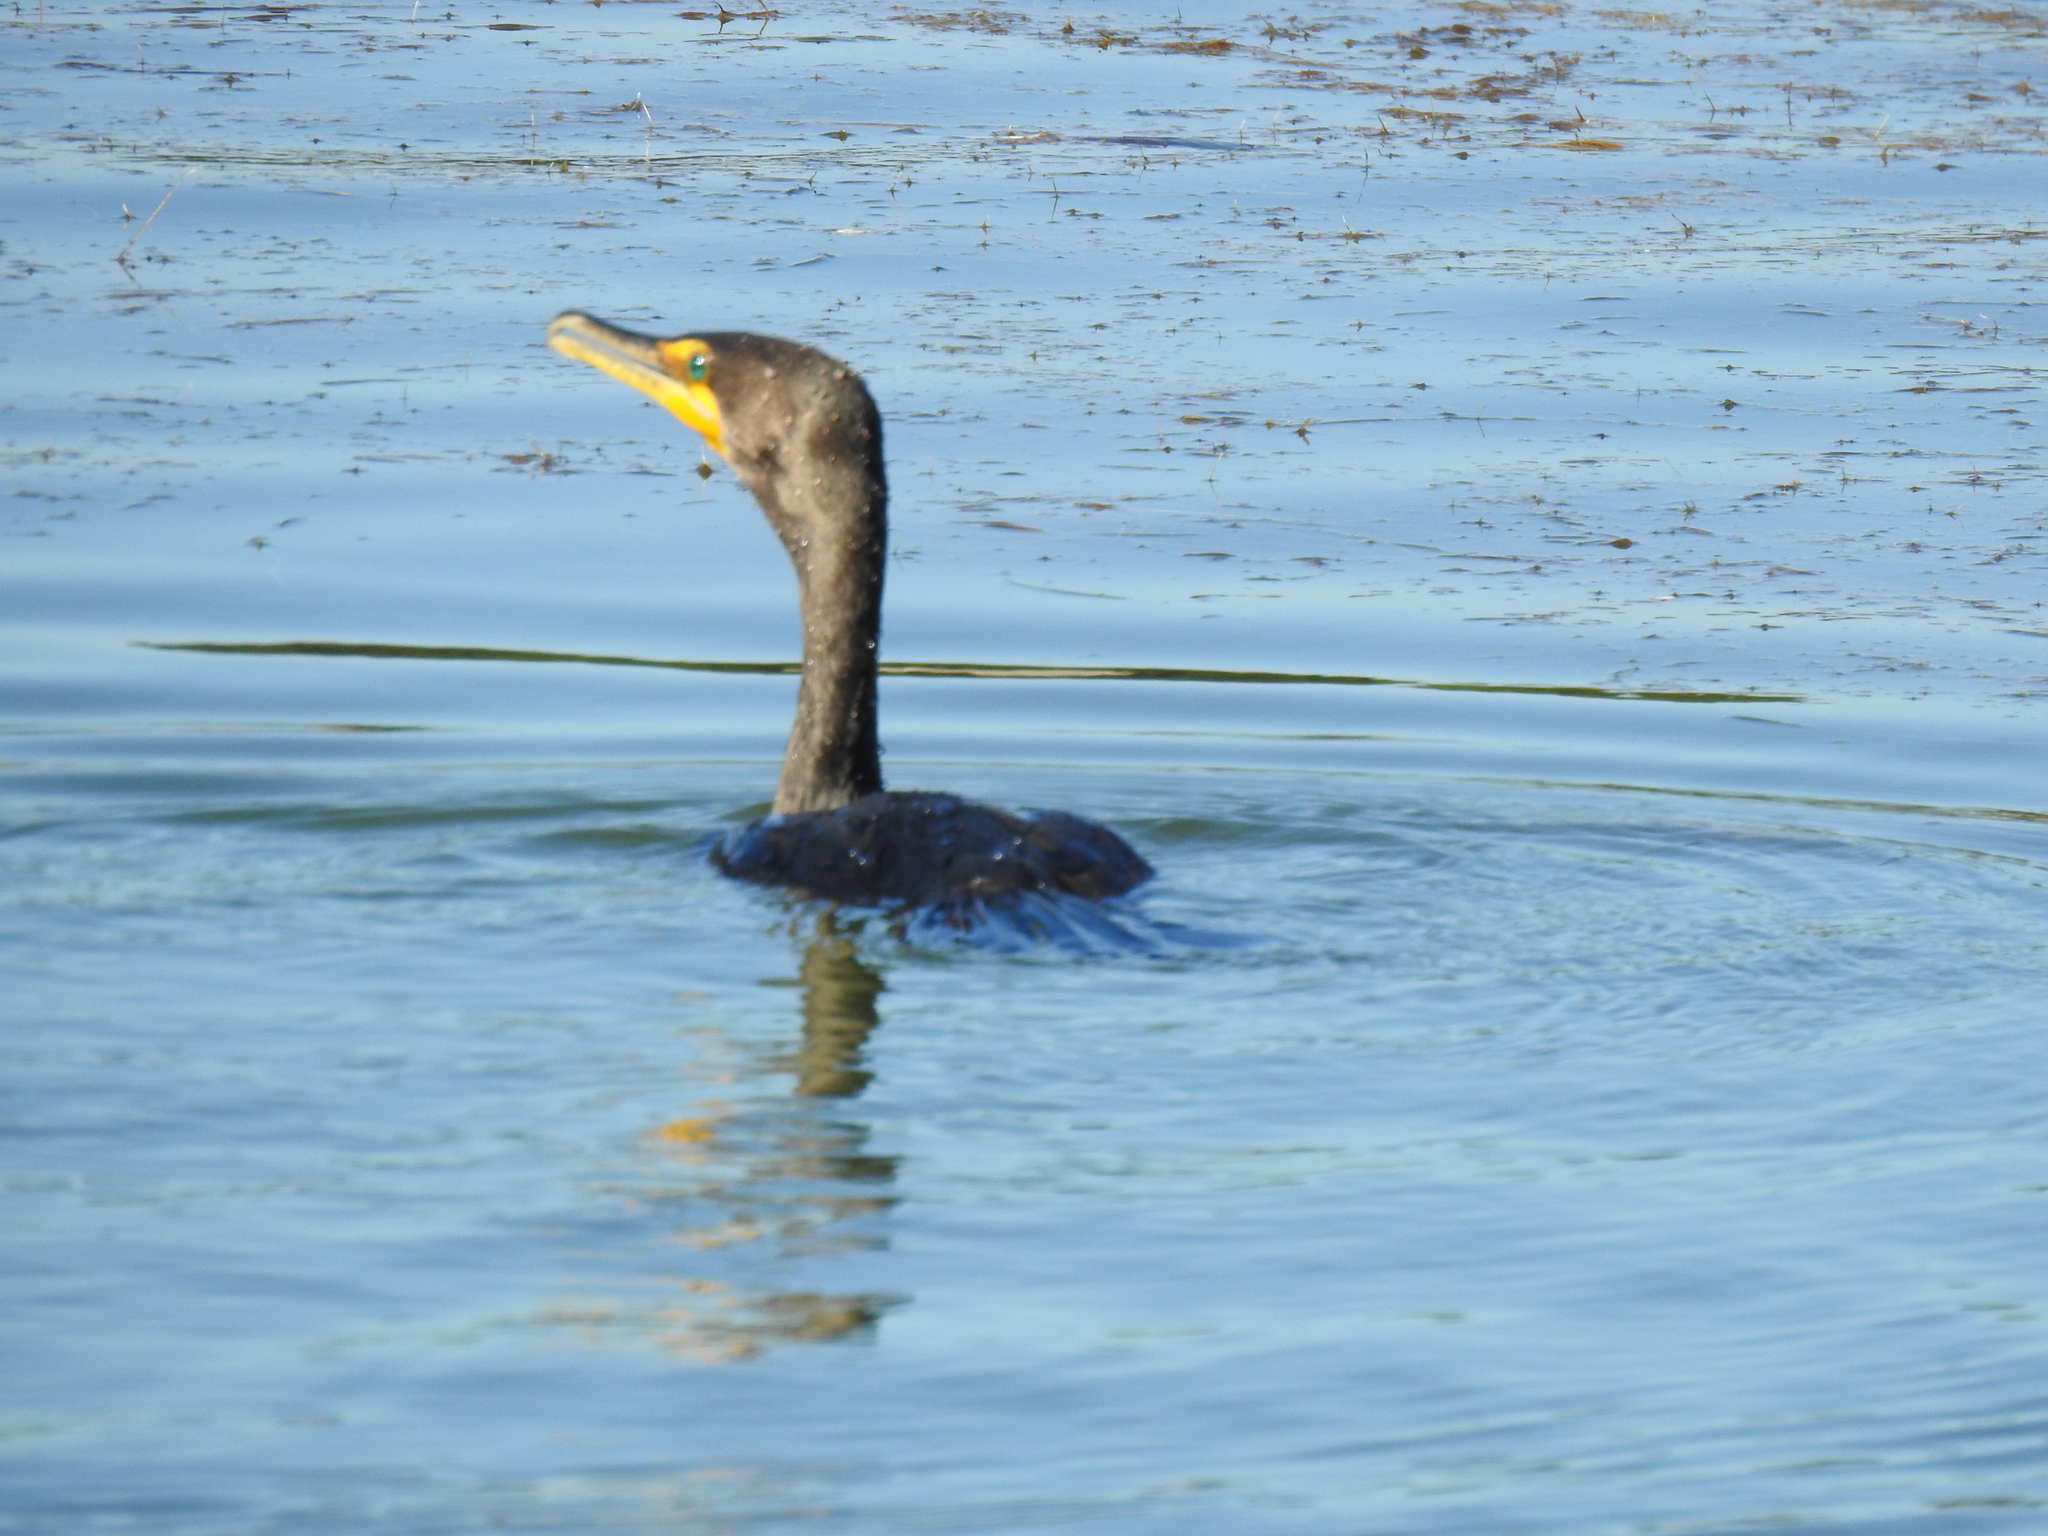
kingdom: Animalia
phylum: Chordata
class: Aves
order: Suliformes
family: Phalacrocoracidae
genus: Phalacrocorax
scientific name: Phalacrocorax auritus
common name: Double-crested cormorant
